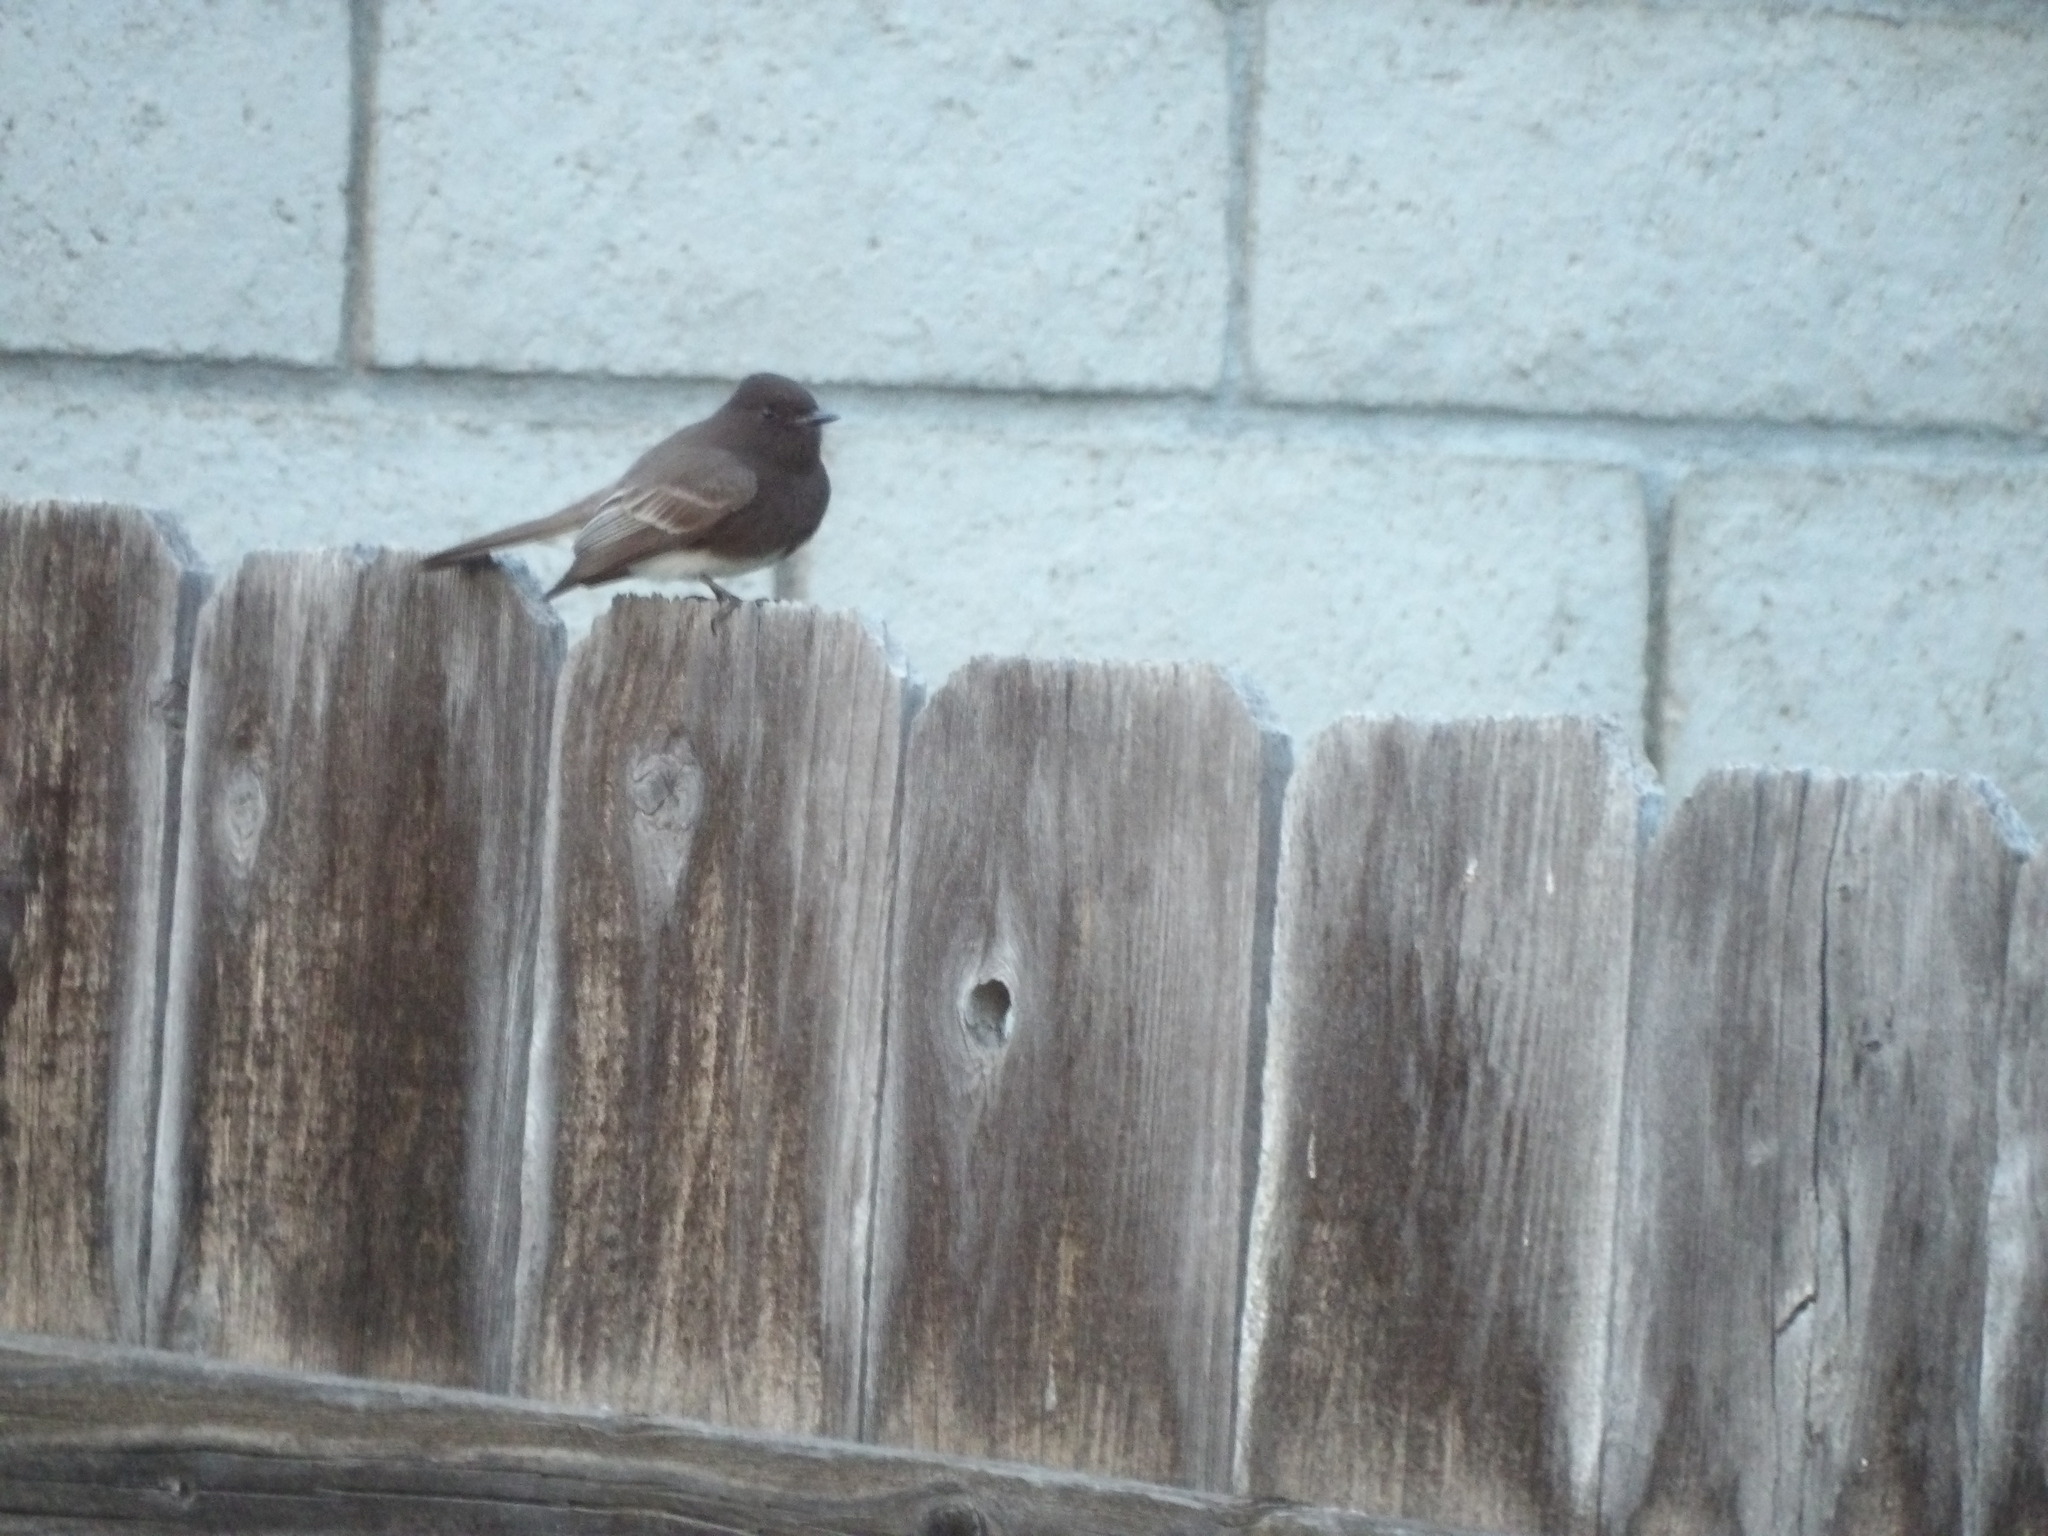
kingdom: Animalia
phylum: Chordata
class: Aves
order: Passeriformes
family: Tyrannidae
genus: Sayornis
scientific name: Sayornis nigricans
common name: Black phoebe
